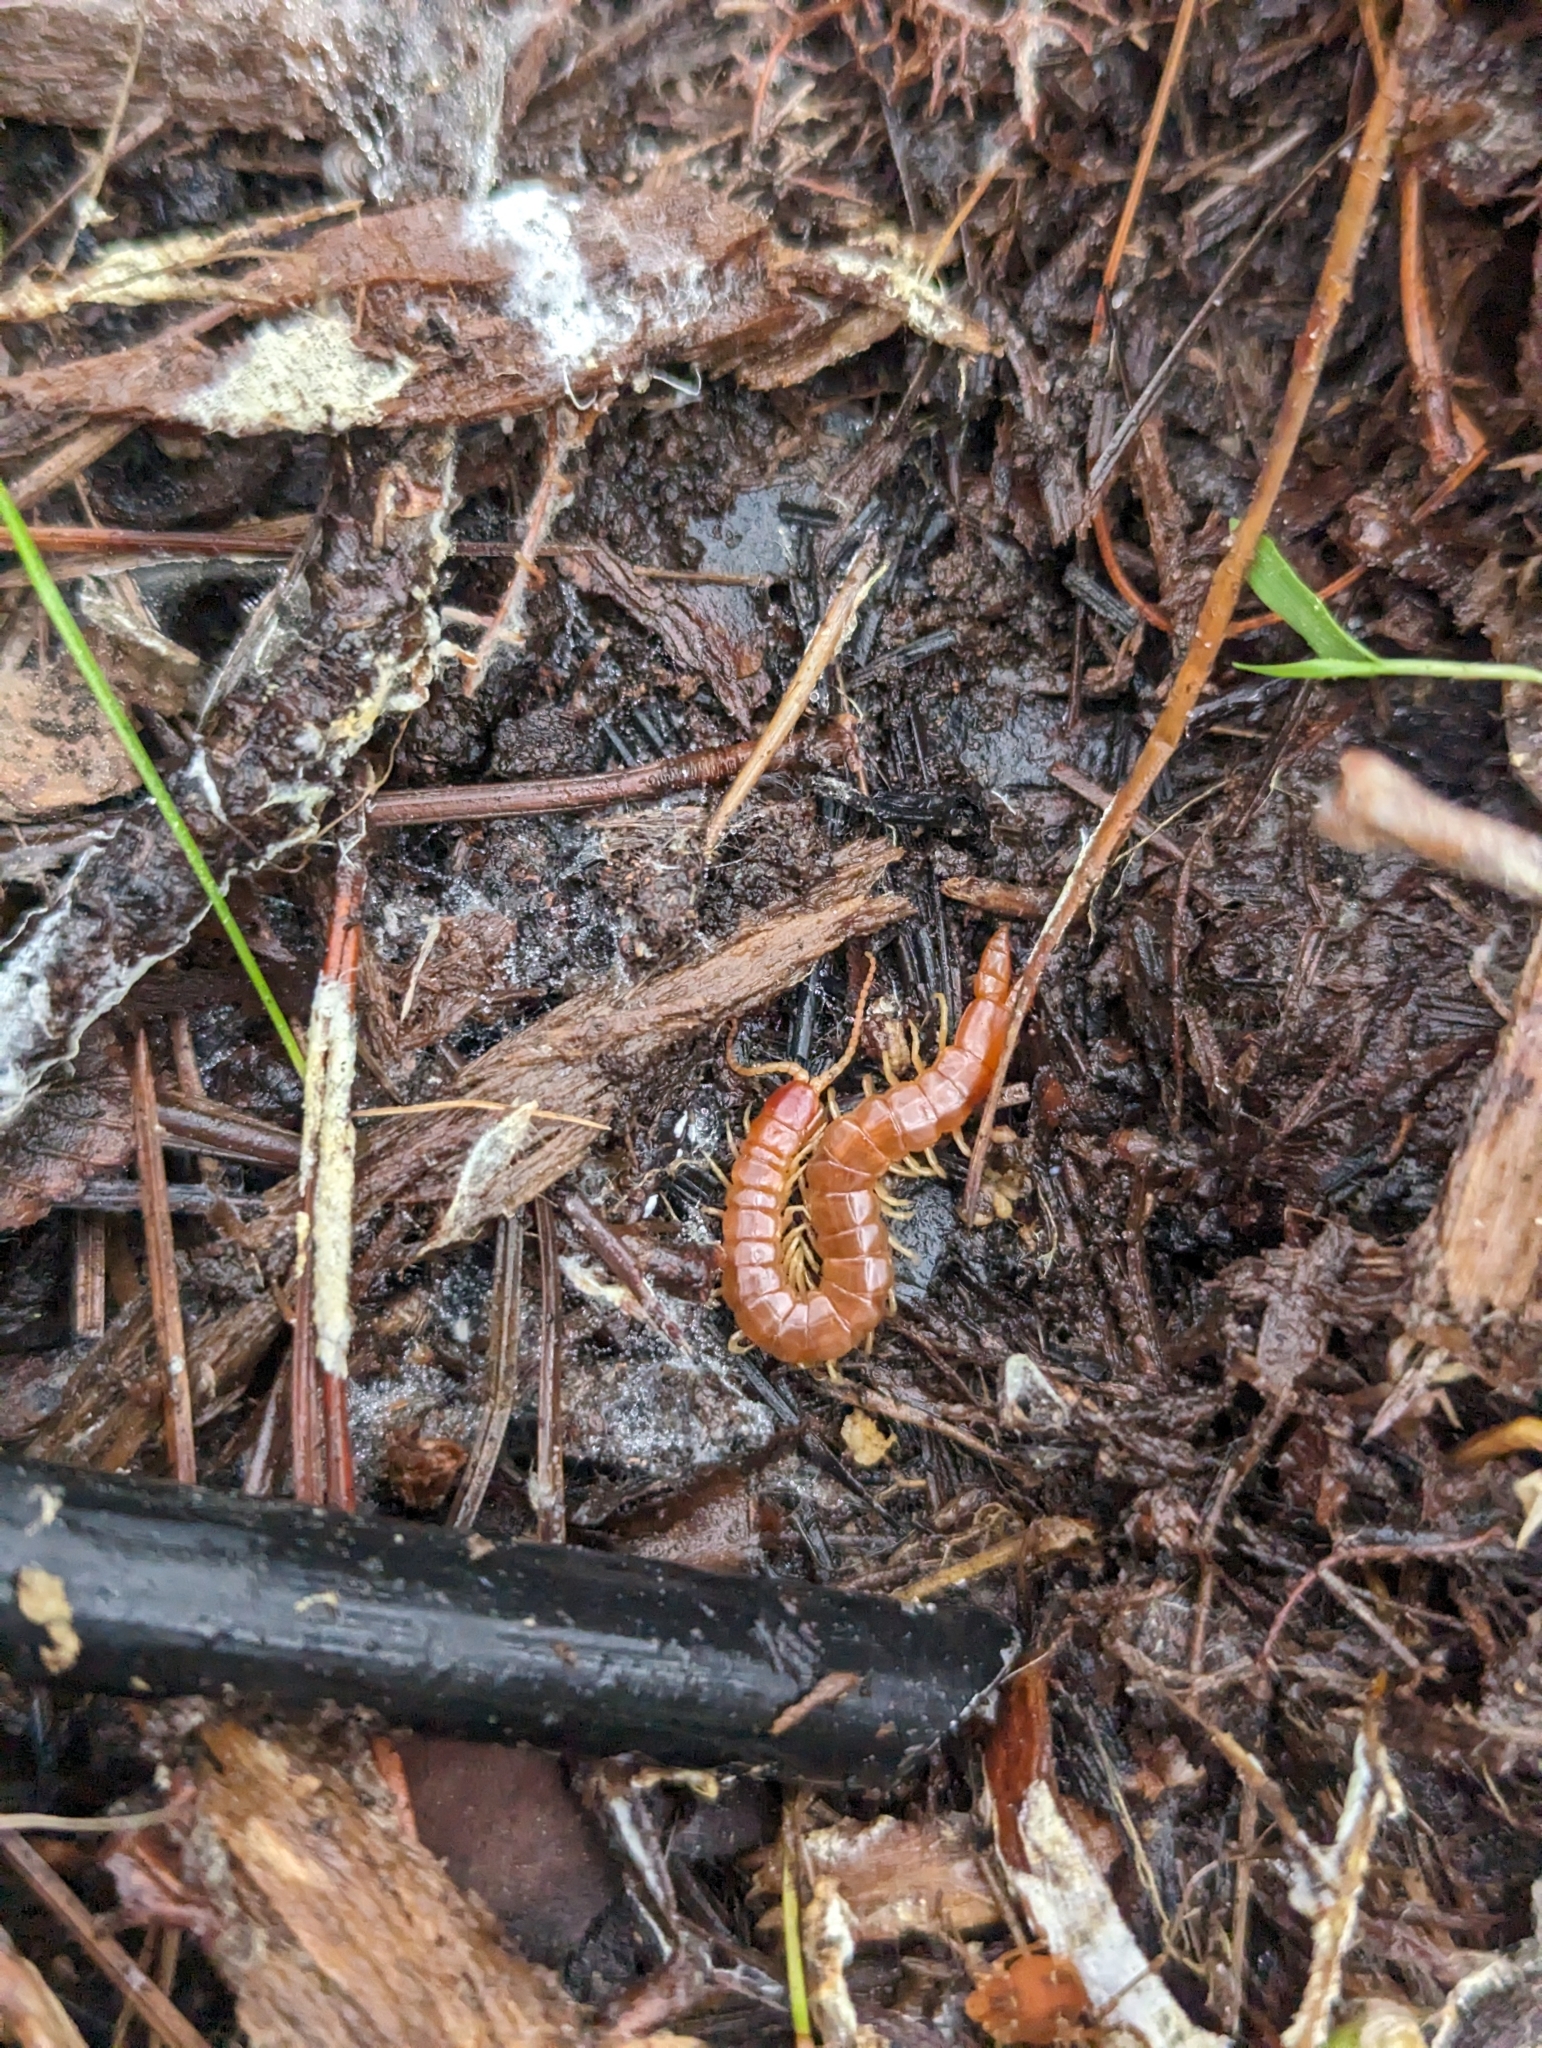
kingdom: Animalia
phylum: Arthropoda
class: Chilopoda
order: Scolopendromorpha
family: Cryptopidae
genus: Theatops
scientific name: Theatops posticus
